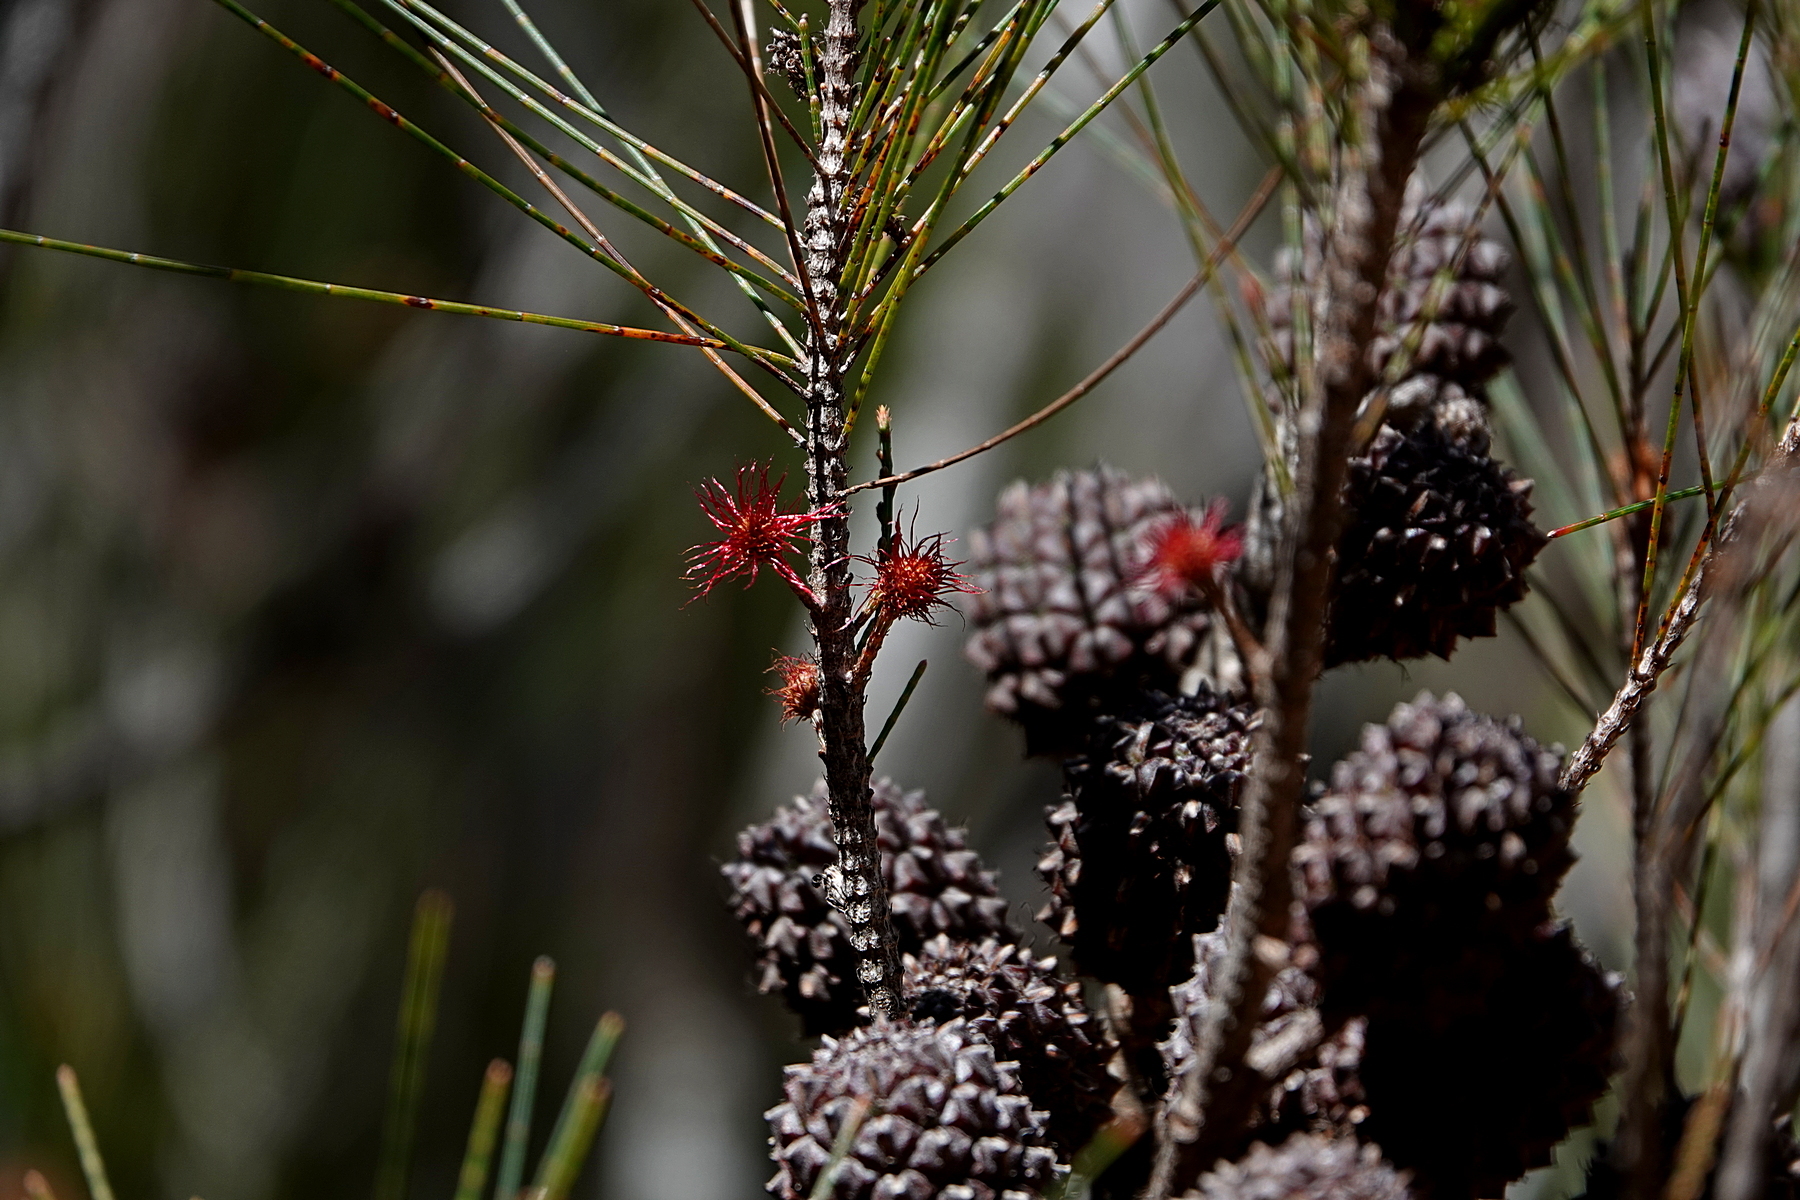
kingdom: Plantae
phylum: Tracheophyta
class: Magnoliopsida
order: Fagales
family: Casuarinaceae
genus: Allocasuarina
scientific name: Allocasuarina littoralis
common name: Black she-oak
